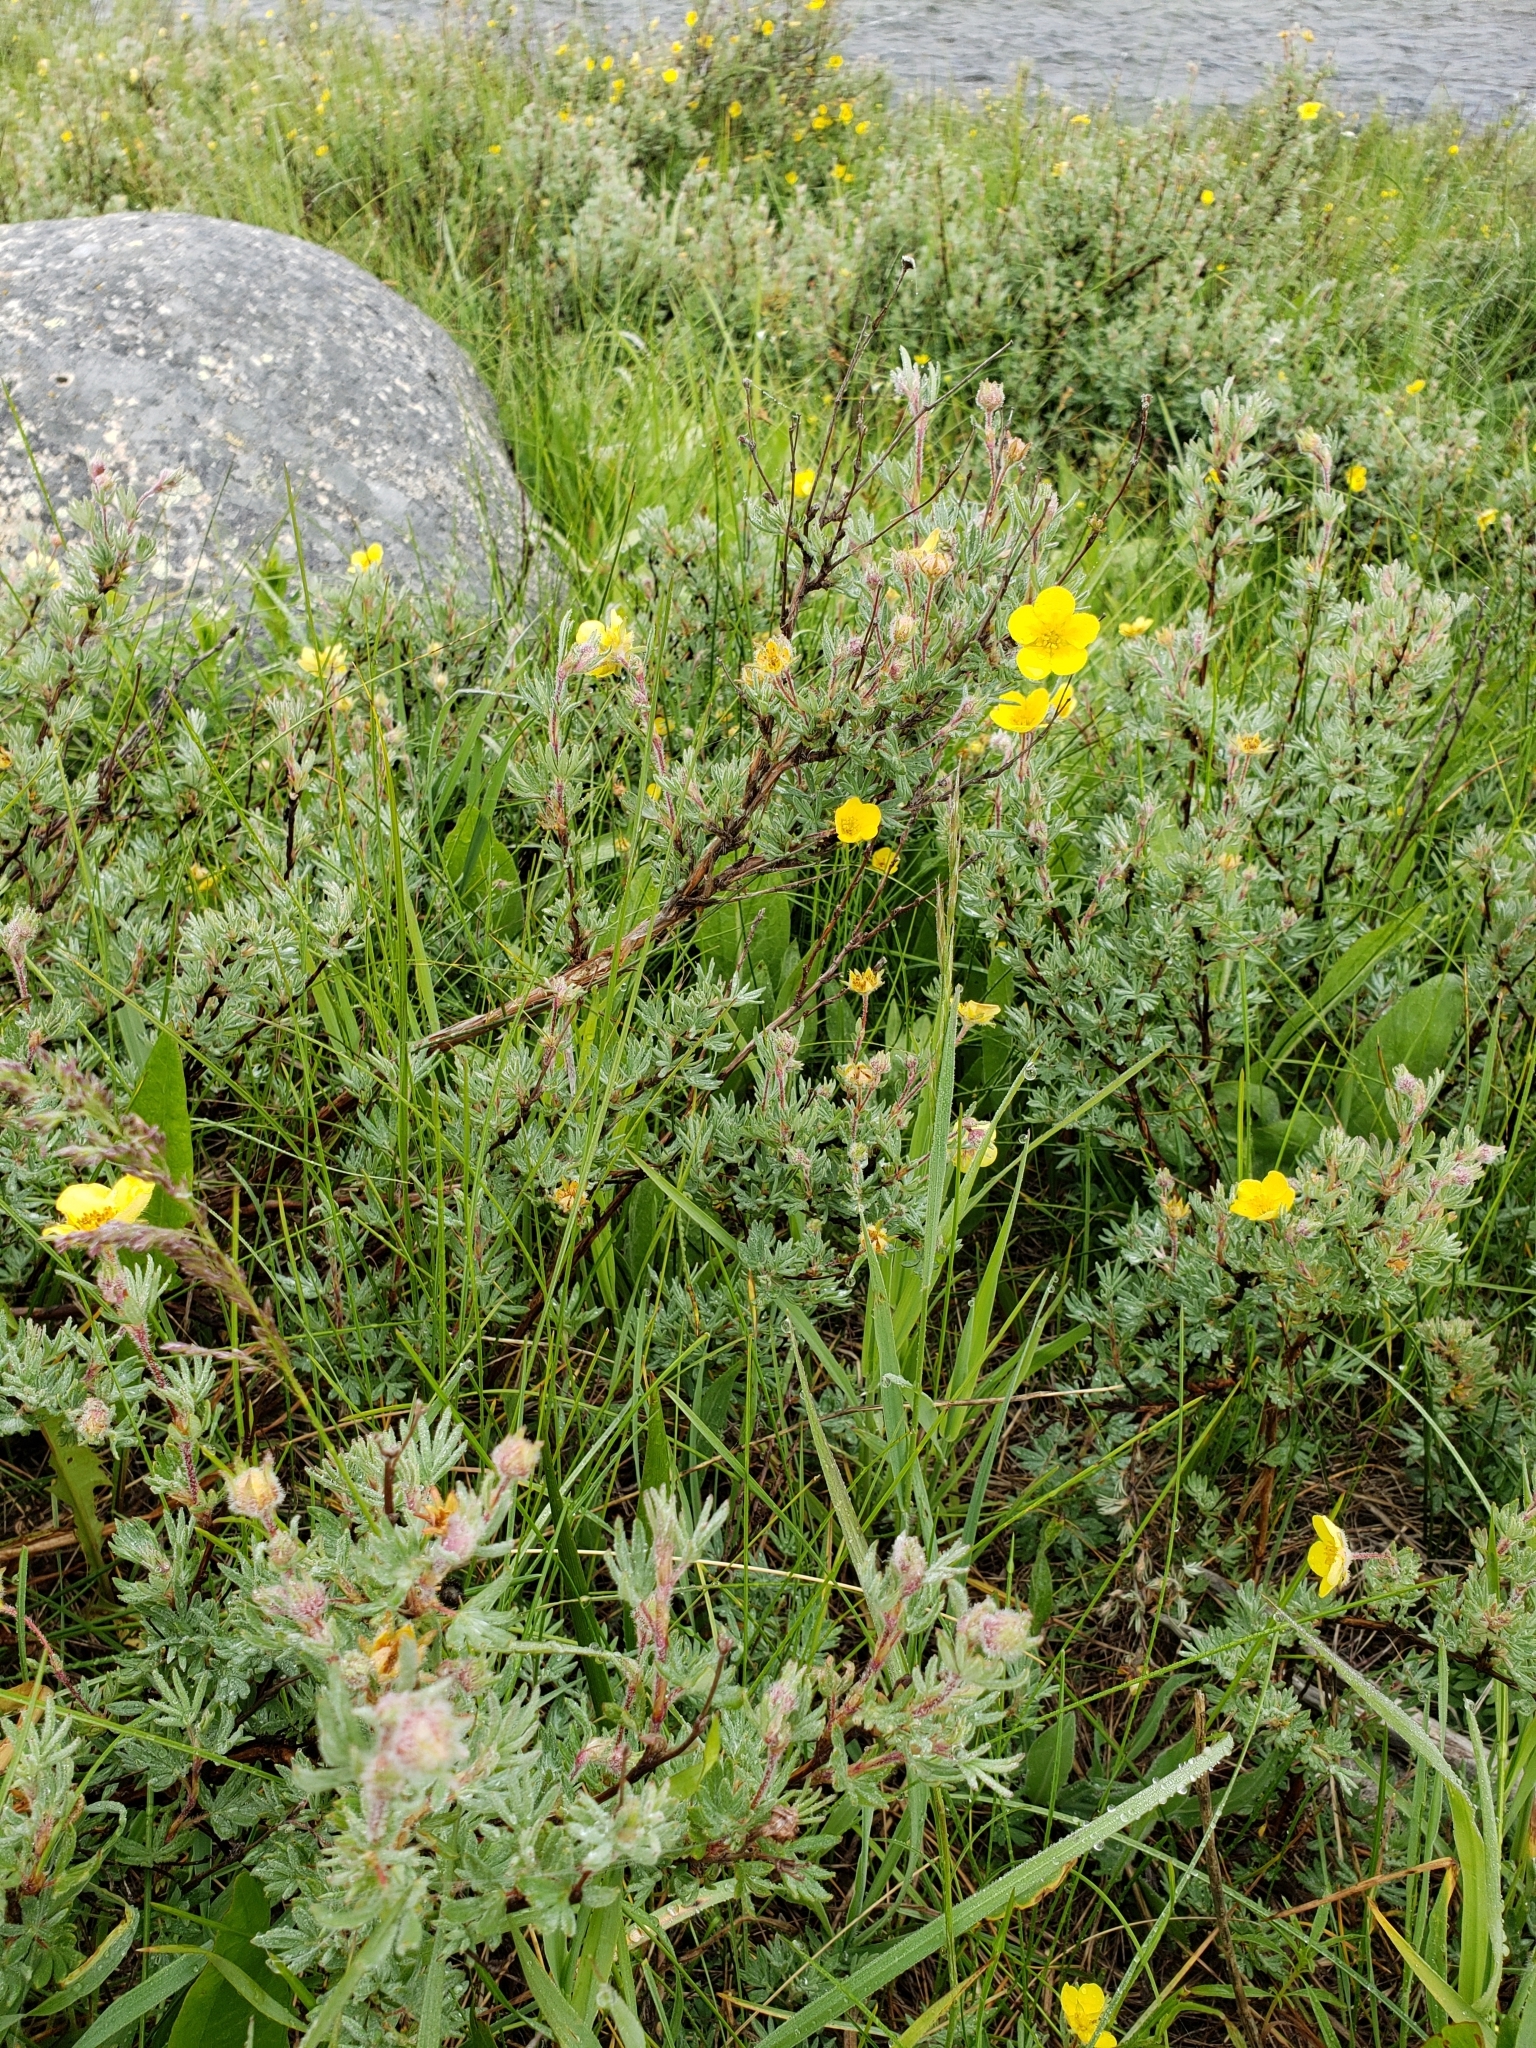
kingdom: Plantae
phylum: Tracheophyta
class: Magnoliopsida
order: Rosales
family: Rosaceae
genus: Dasiphora
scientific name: Dasiphora fruticosa
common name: Shrubby cinquefoil
